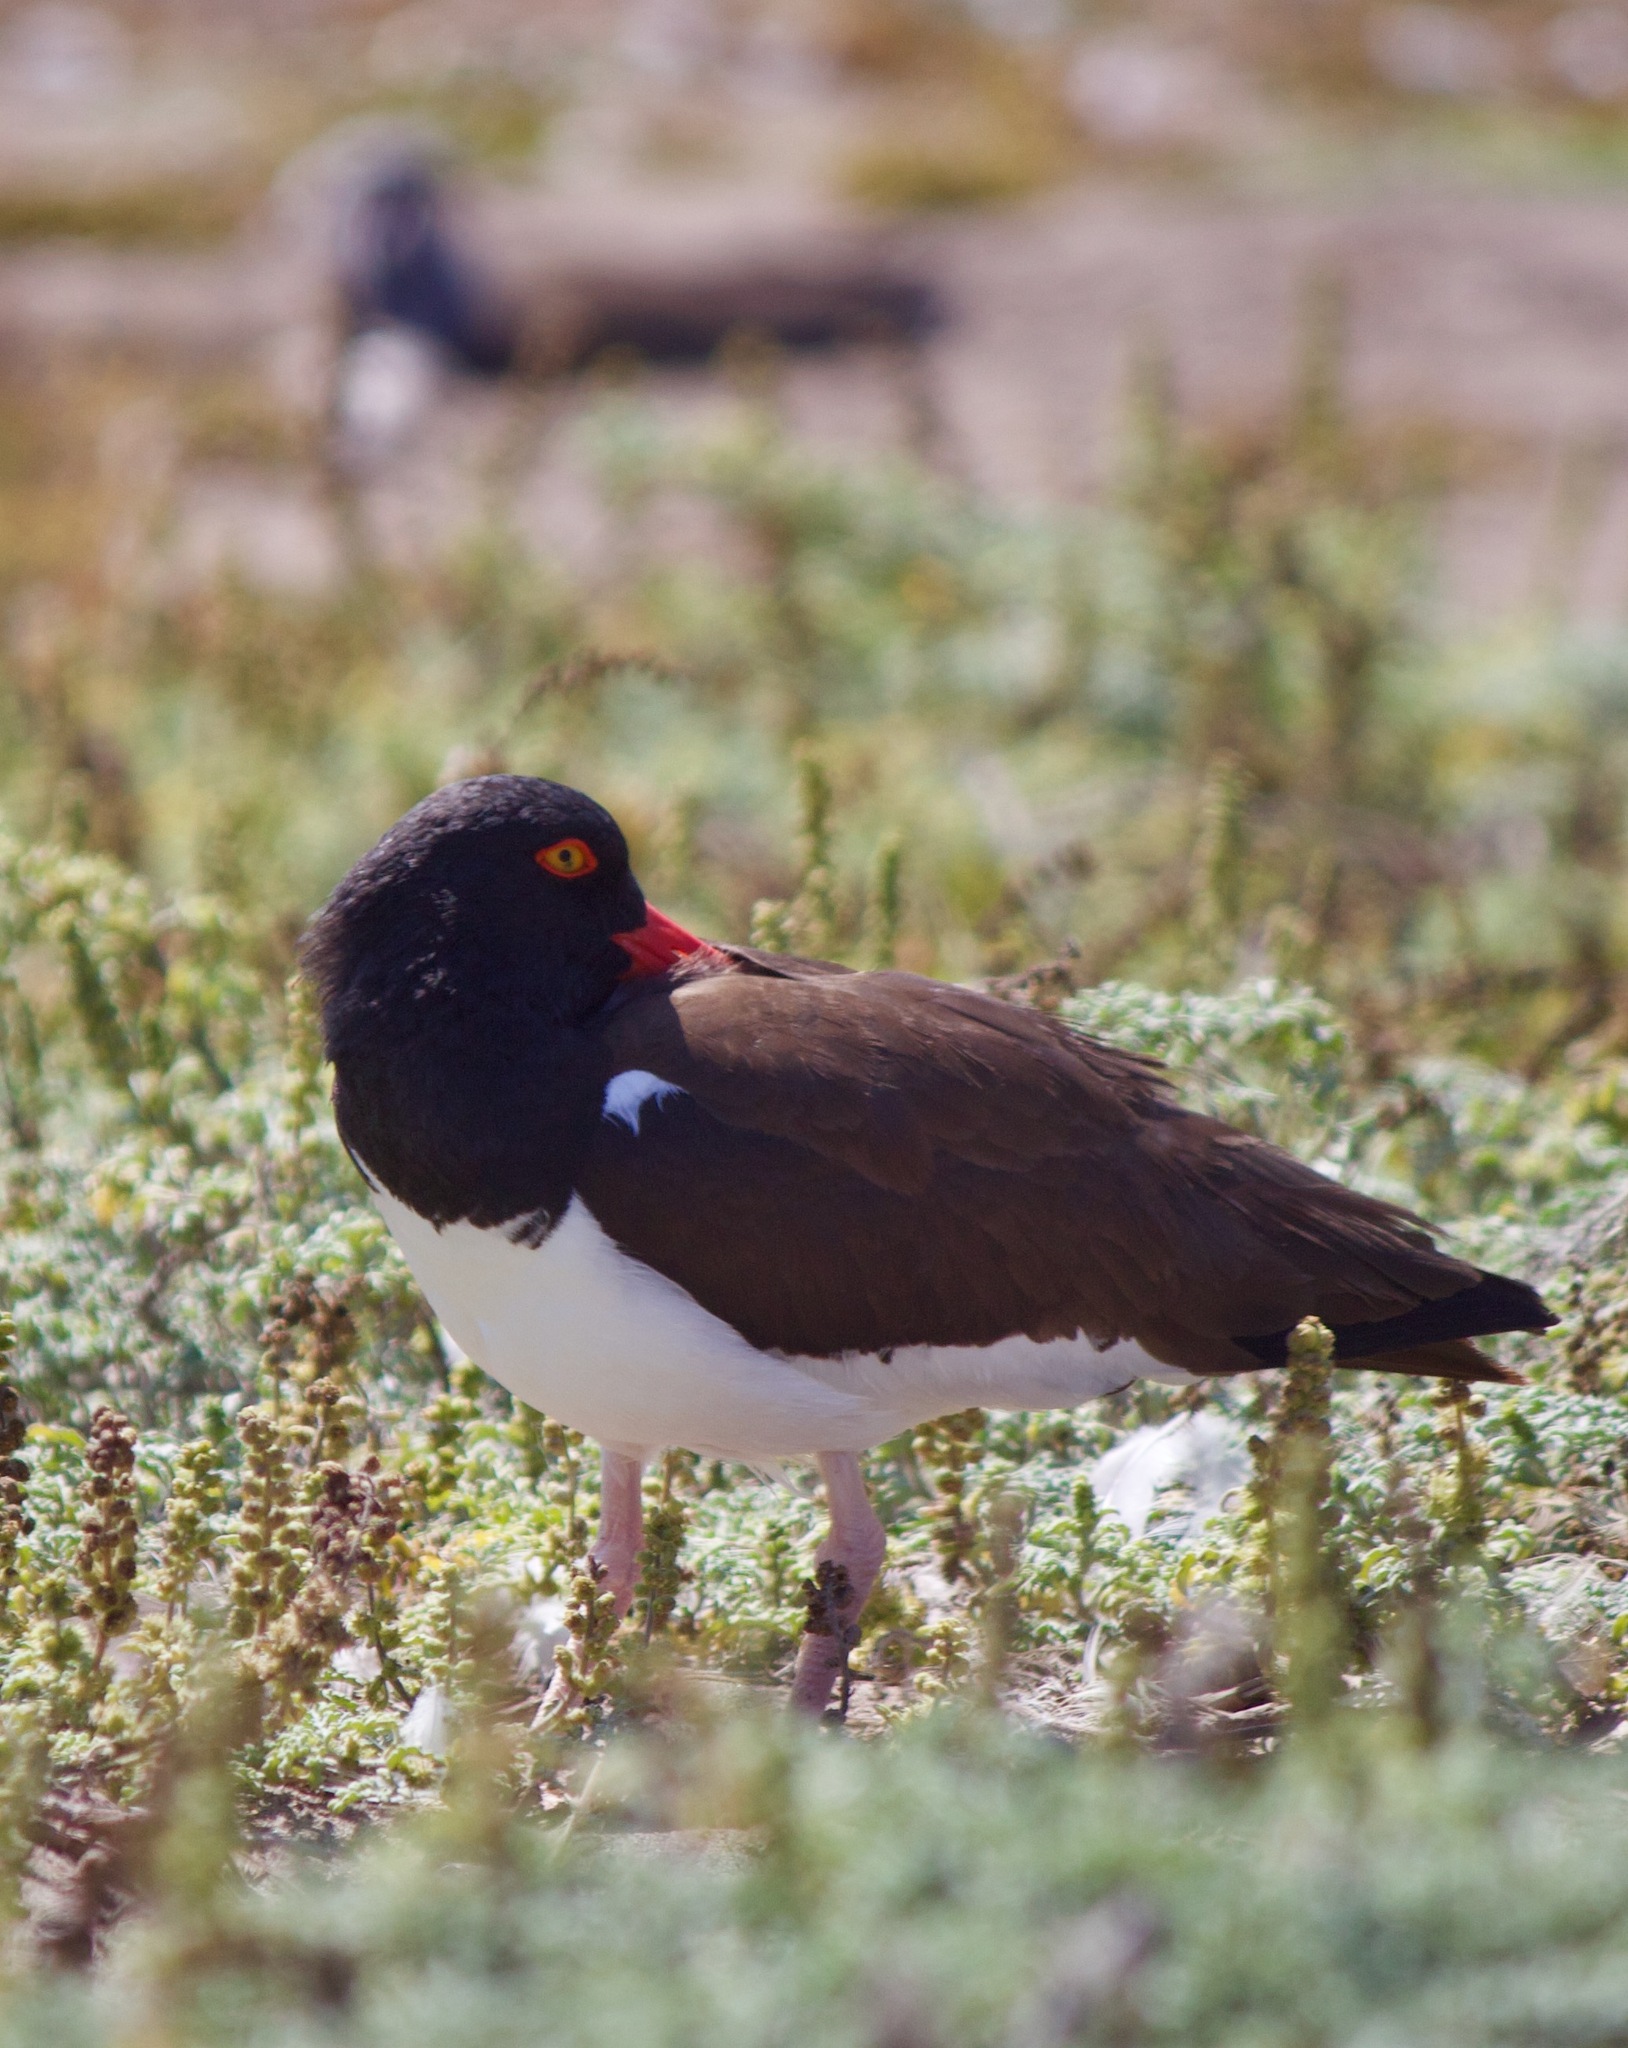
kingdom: Animalia
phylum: Chordata
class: Aves
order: Charadriiformes
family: Haematopodidae
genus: Haematopus
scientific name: Haematopus palliatus
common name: American oystercatcher
